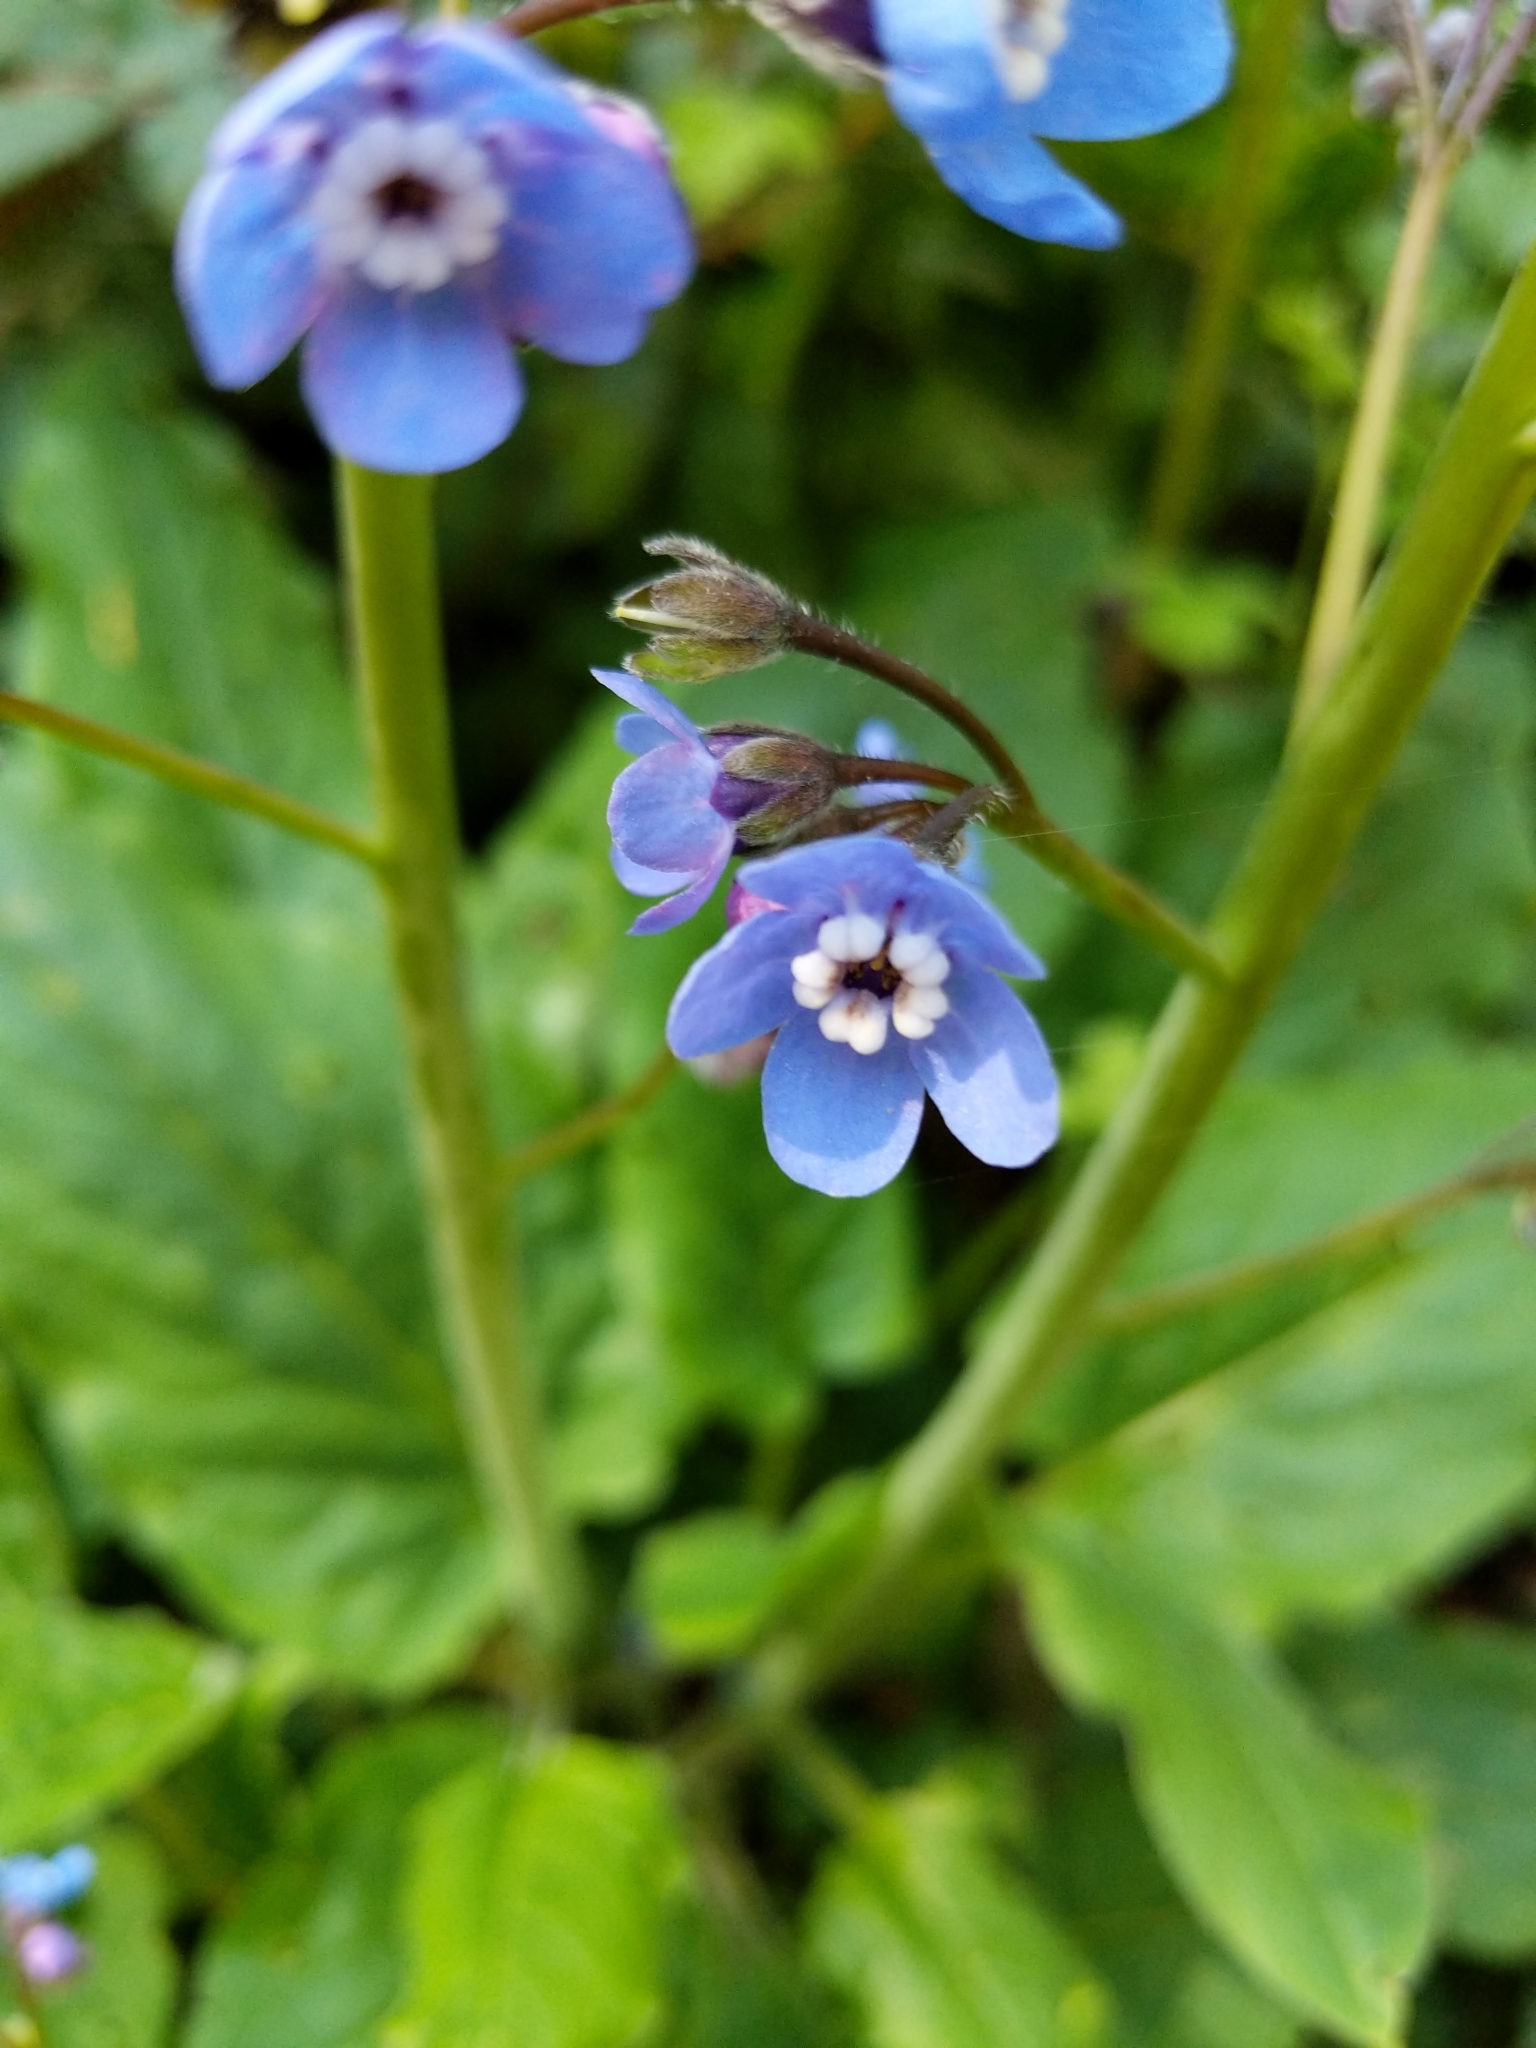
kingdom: Plantae
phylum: Tracheophyta
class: Magnoliopsida
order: Boraginales
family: Boraginaceae
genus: Adelinia
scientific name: Adelinia grande
